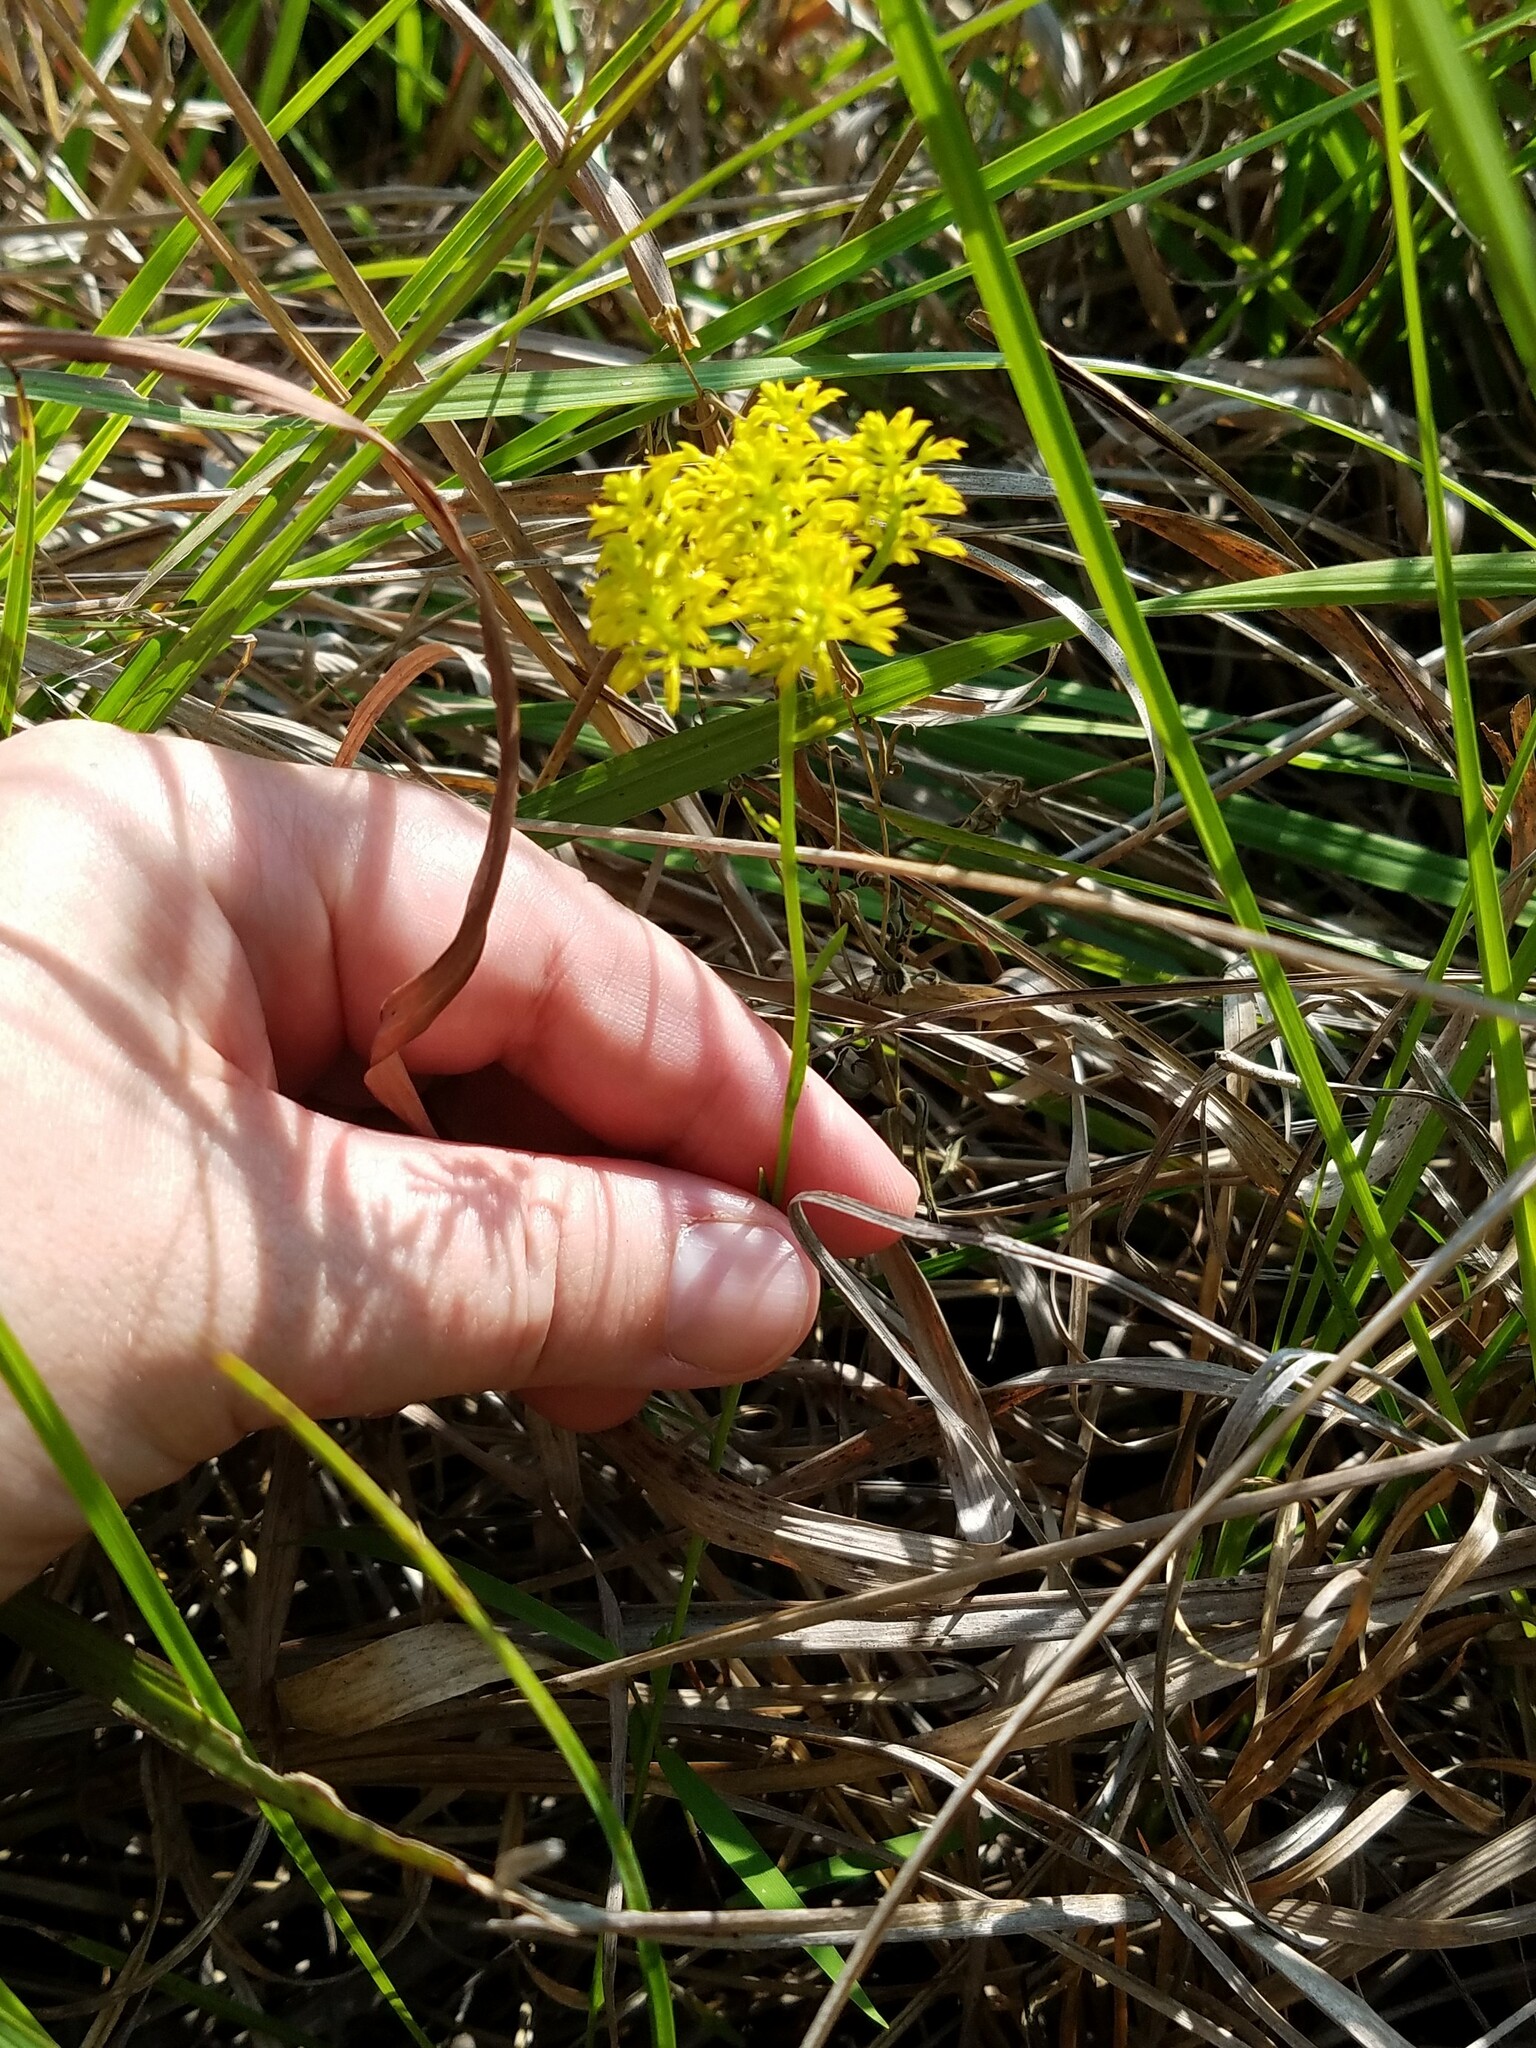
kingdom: Plantae
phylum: Tracheophyta
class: Magnoliopsida
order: Fabales
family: Polygalaceae
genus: Polygala
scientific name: Polygala ramosa
